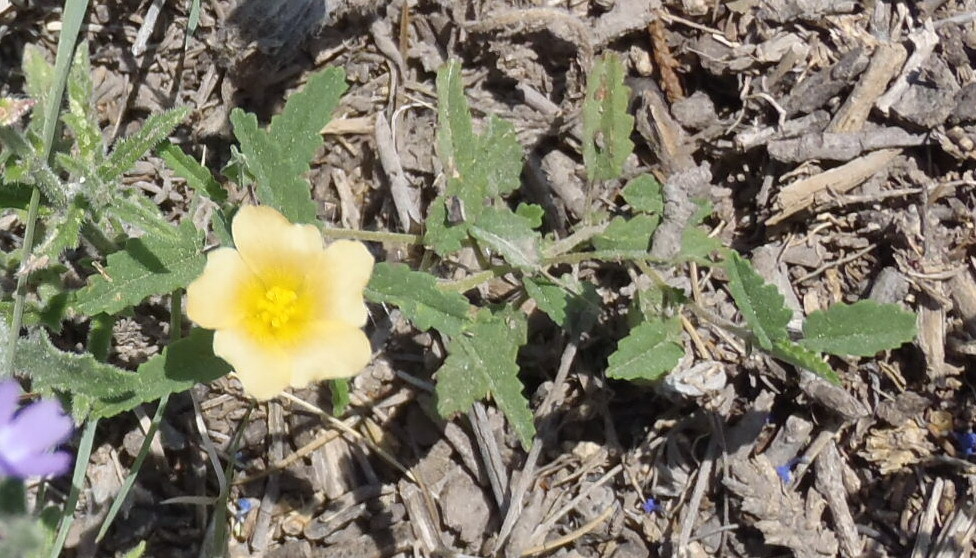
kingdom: Plantae
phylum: Tracheophyta
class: Magnoliopsida
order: Malvales
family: Malvaceae
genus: Sida
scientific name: Sida abutilifolia
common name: Spreading fanpetals
